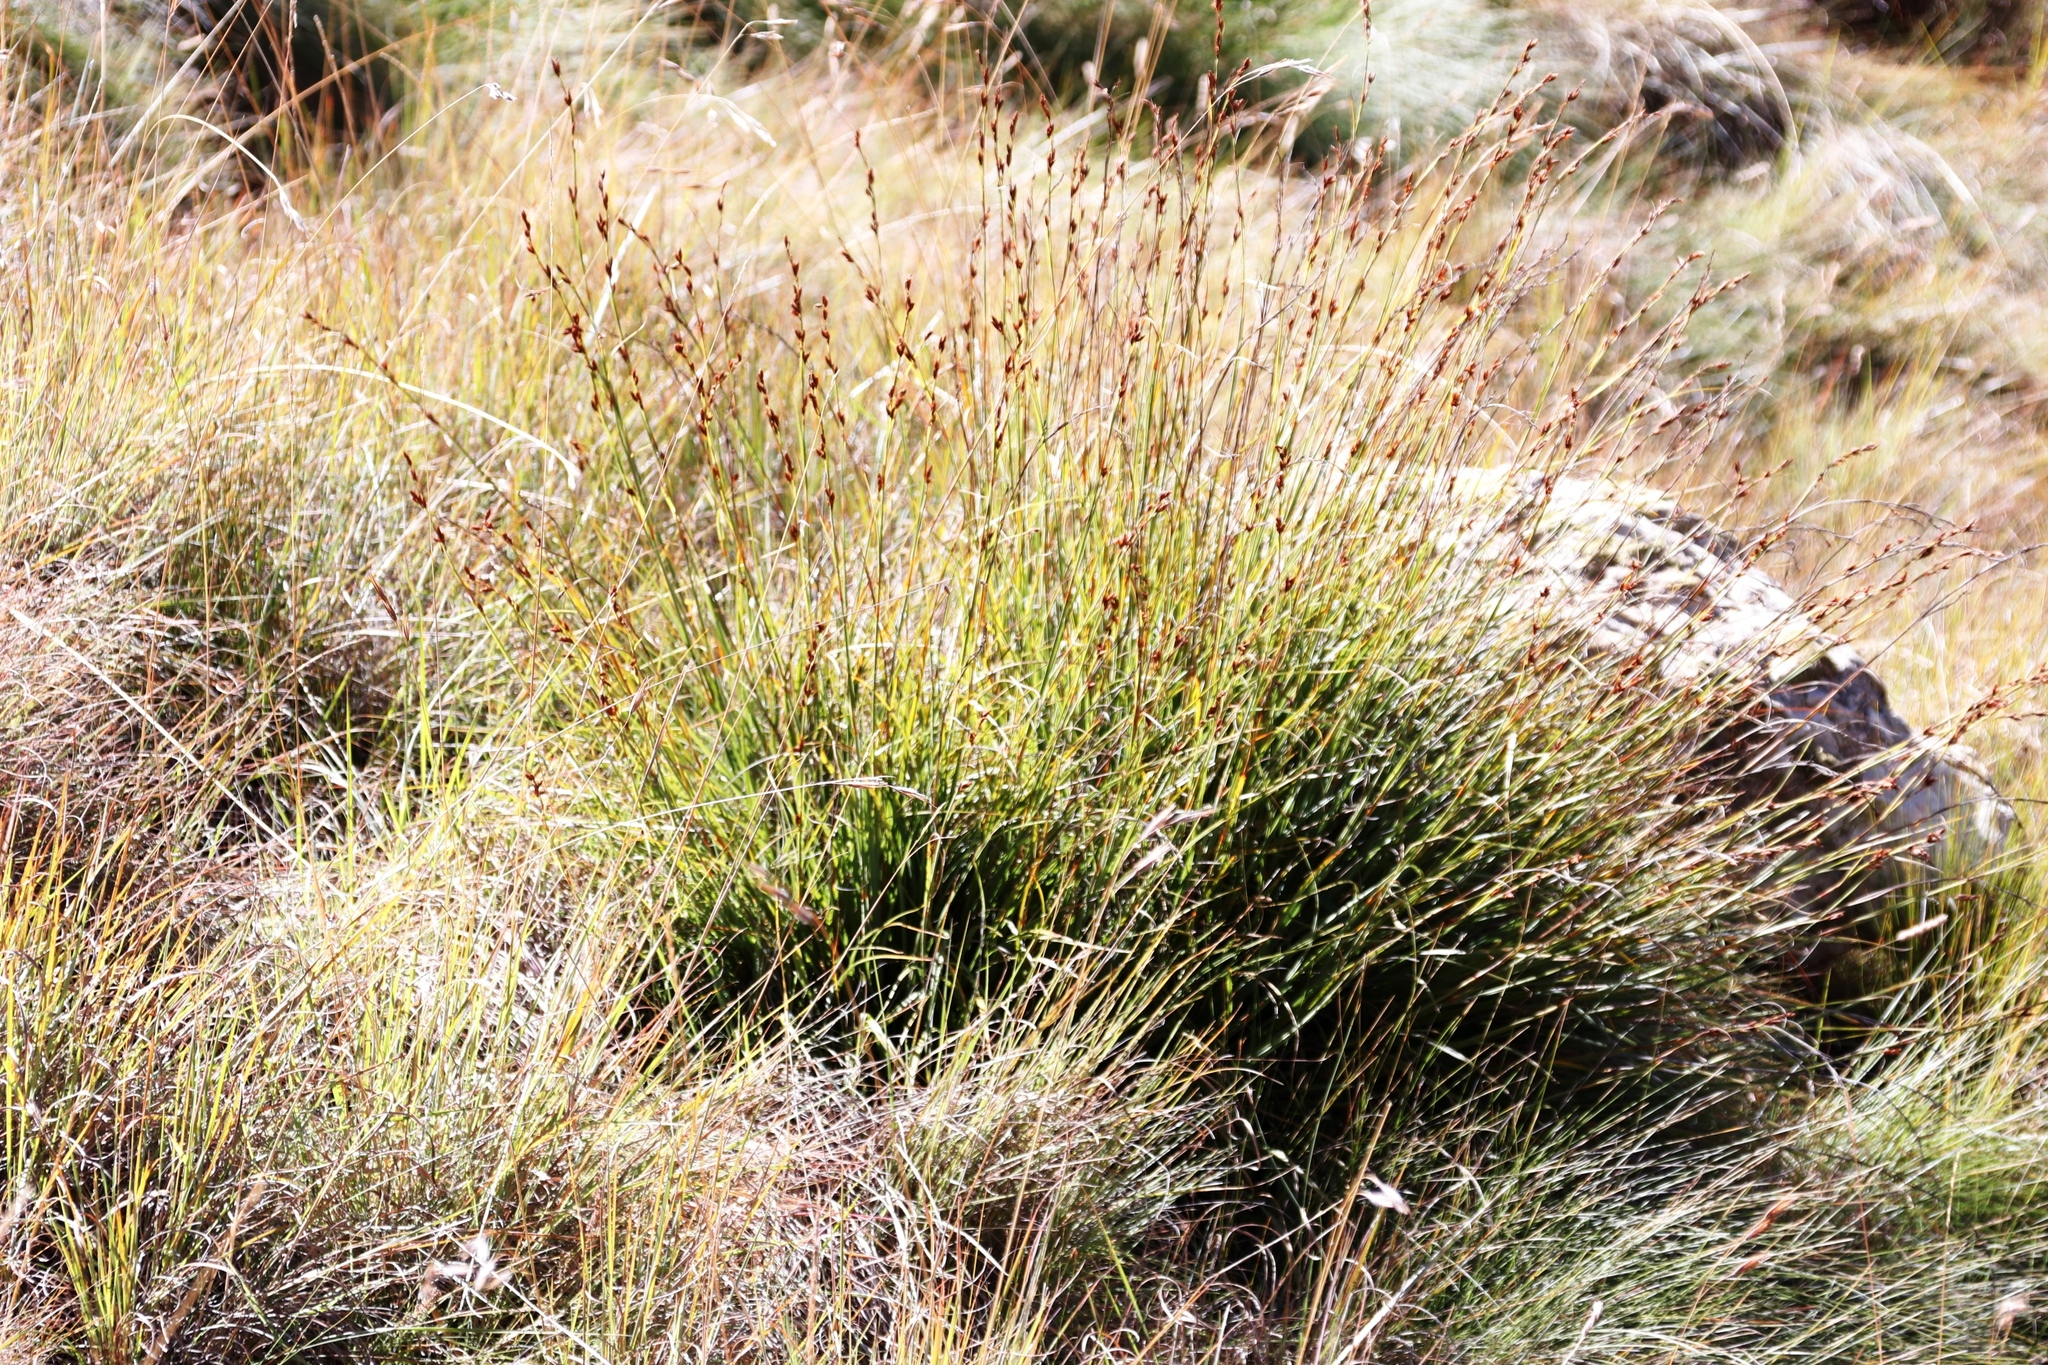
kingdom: Plantae
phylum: Tracheophyta
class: Liliopsida
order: Poales
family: Cyperaceae
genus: Tetraria
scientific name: Tetraria triangularis
